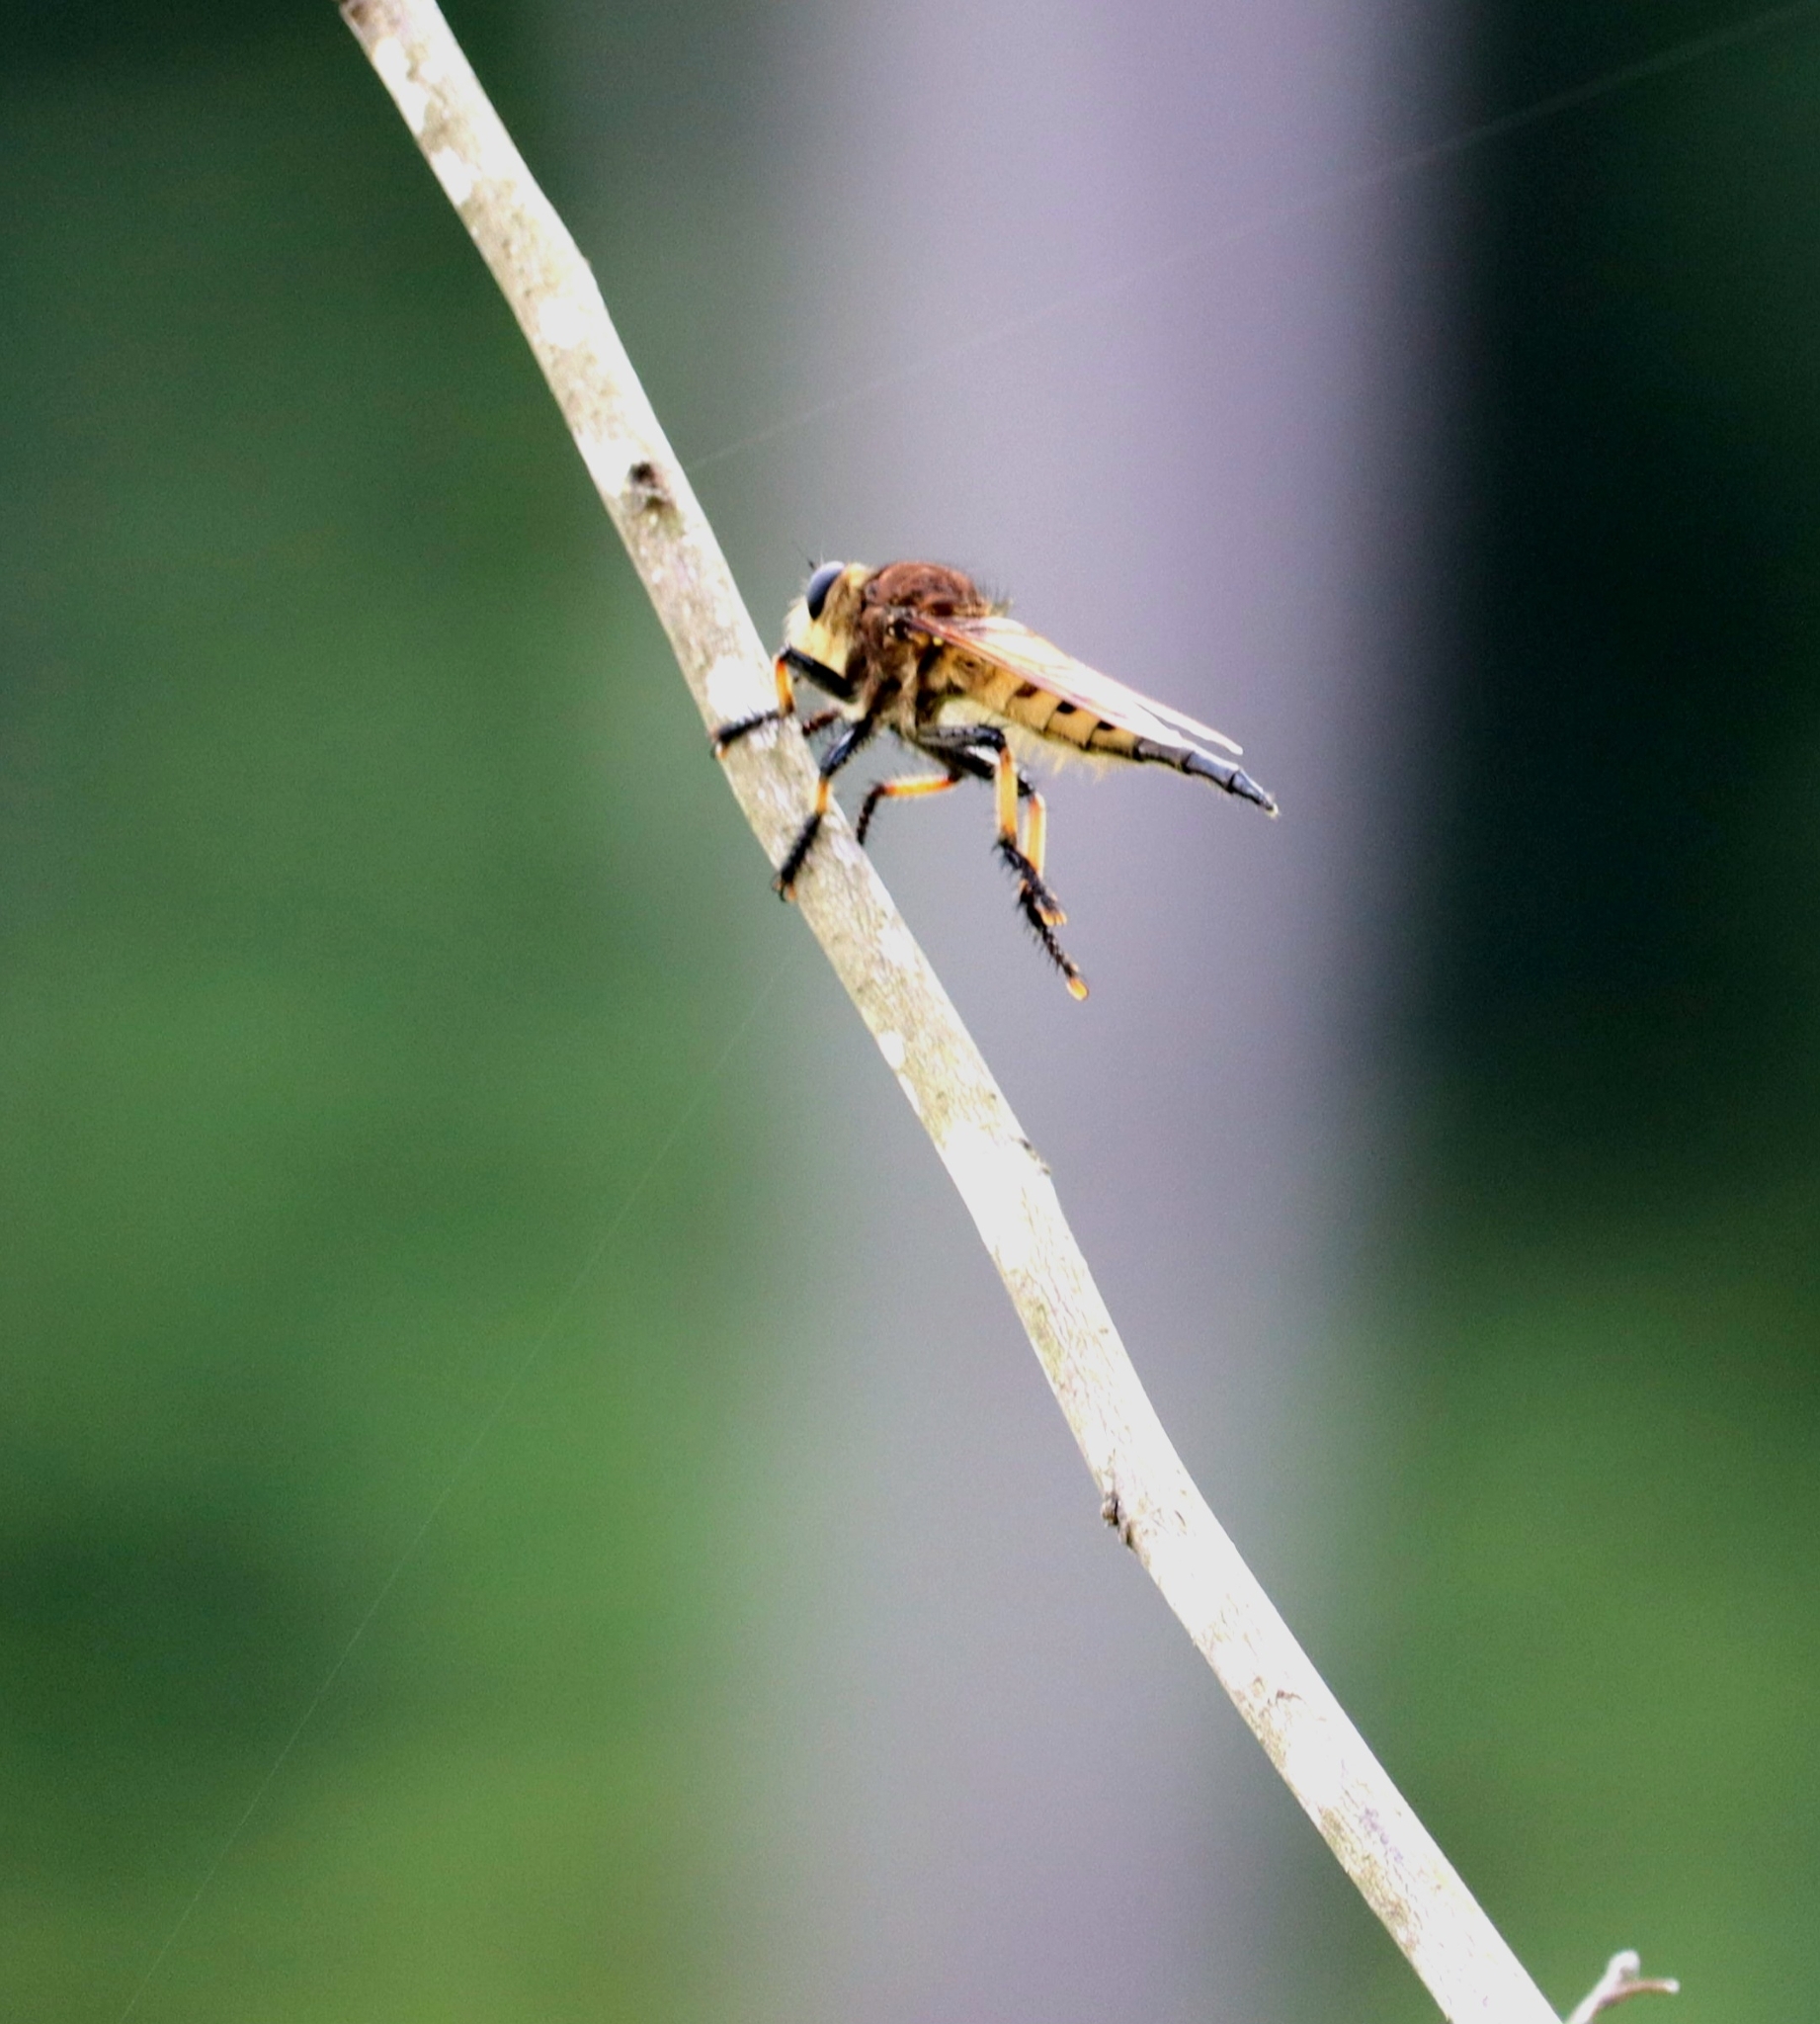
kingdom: Animalia
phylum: Arthropoda
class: Insecta
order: Diptera
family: Asilidae
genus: Promachus
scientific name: Promachus rufipes
